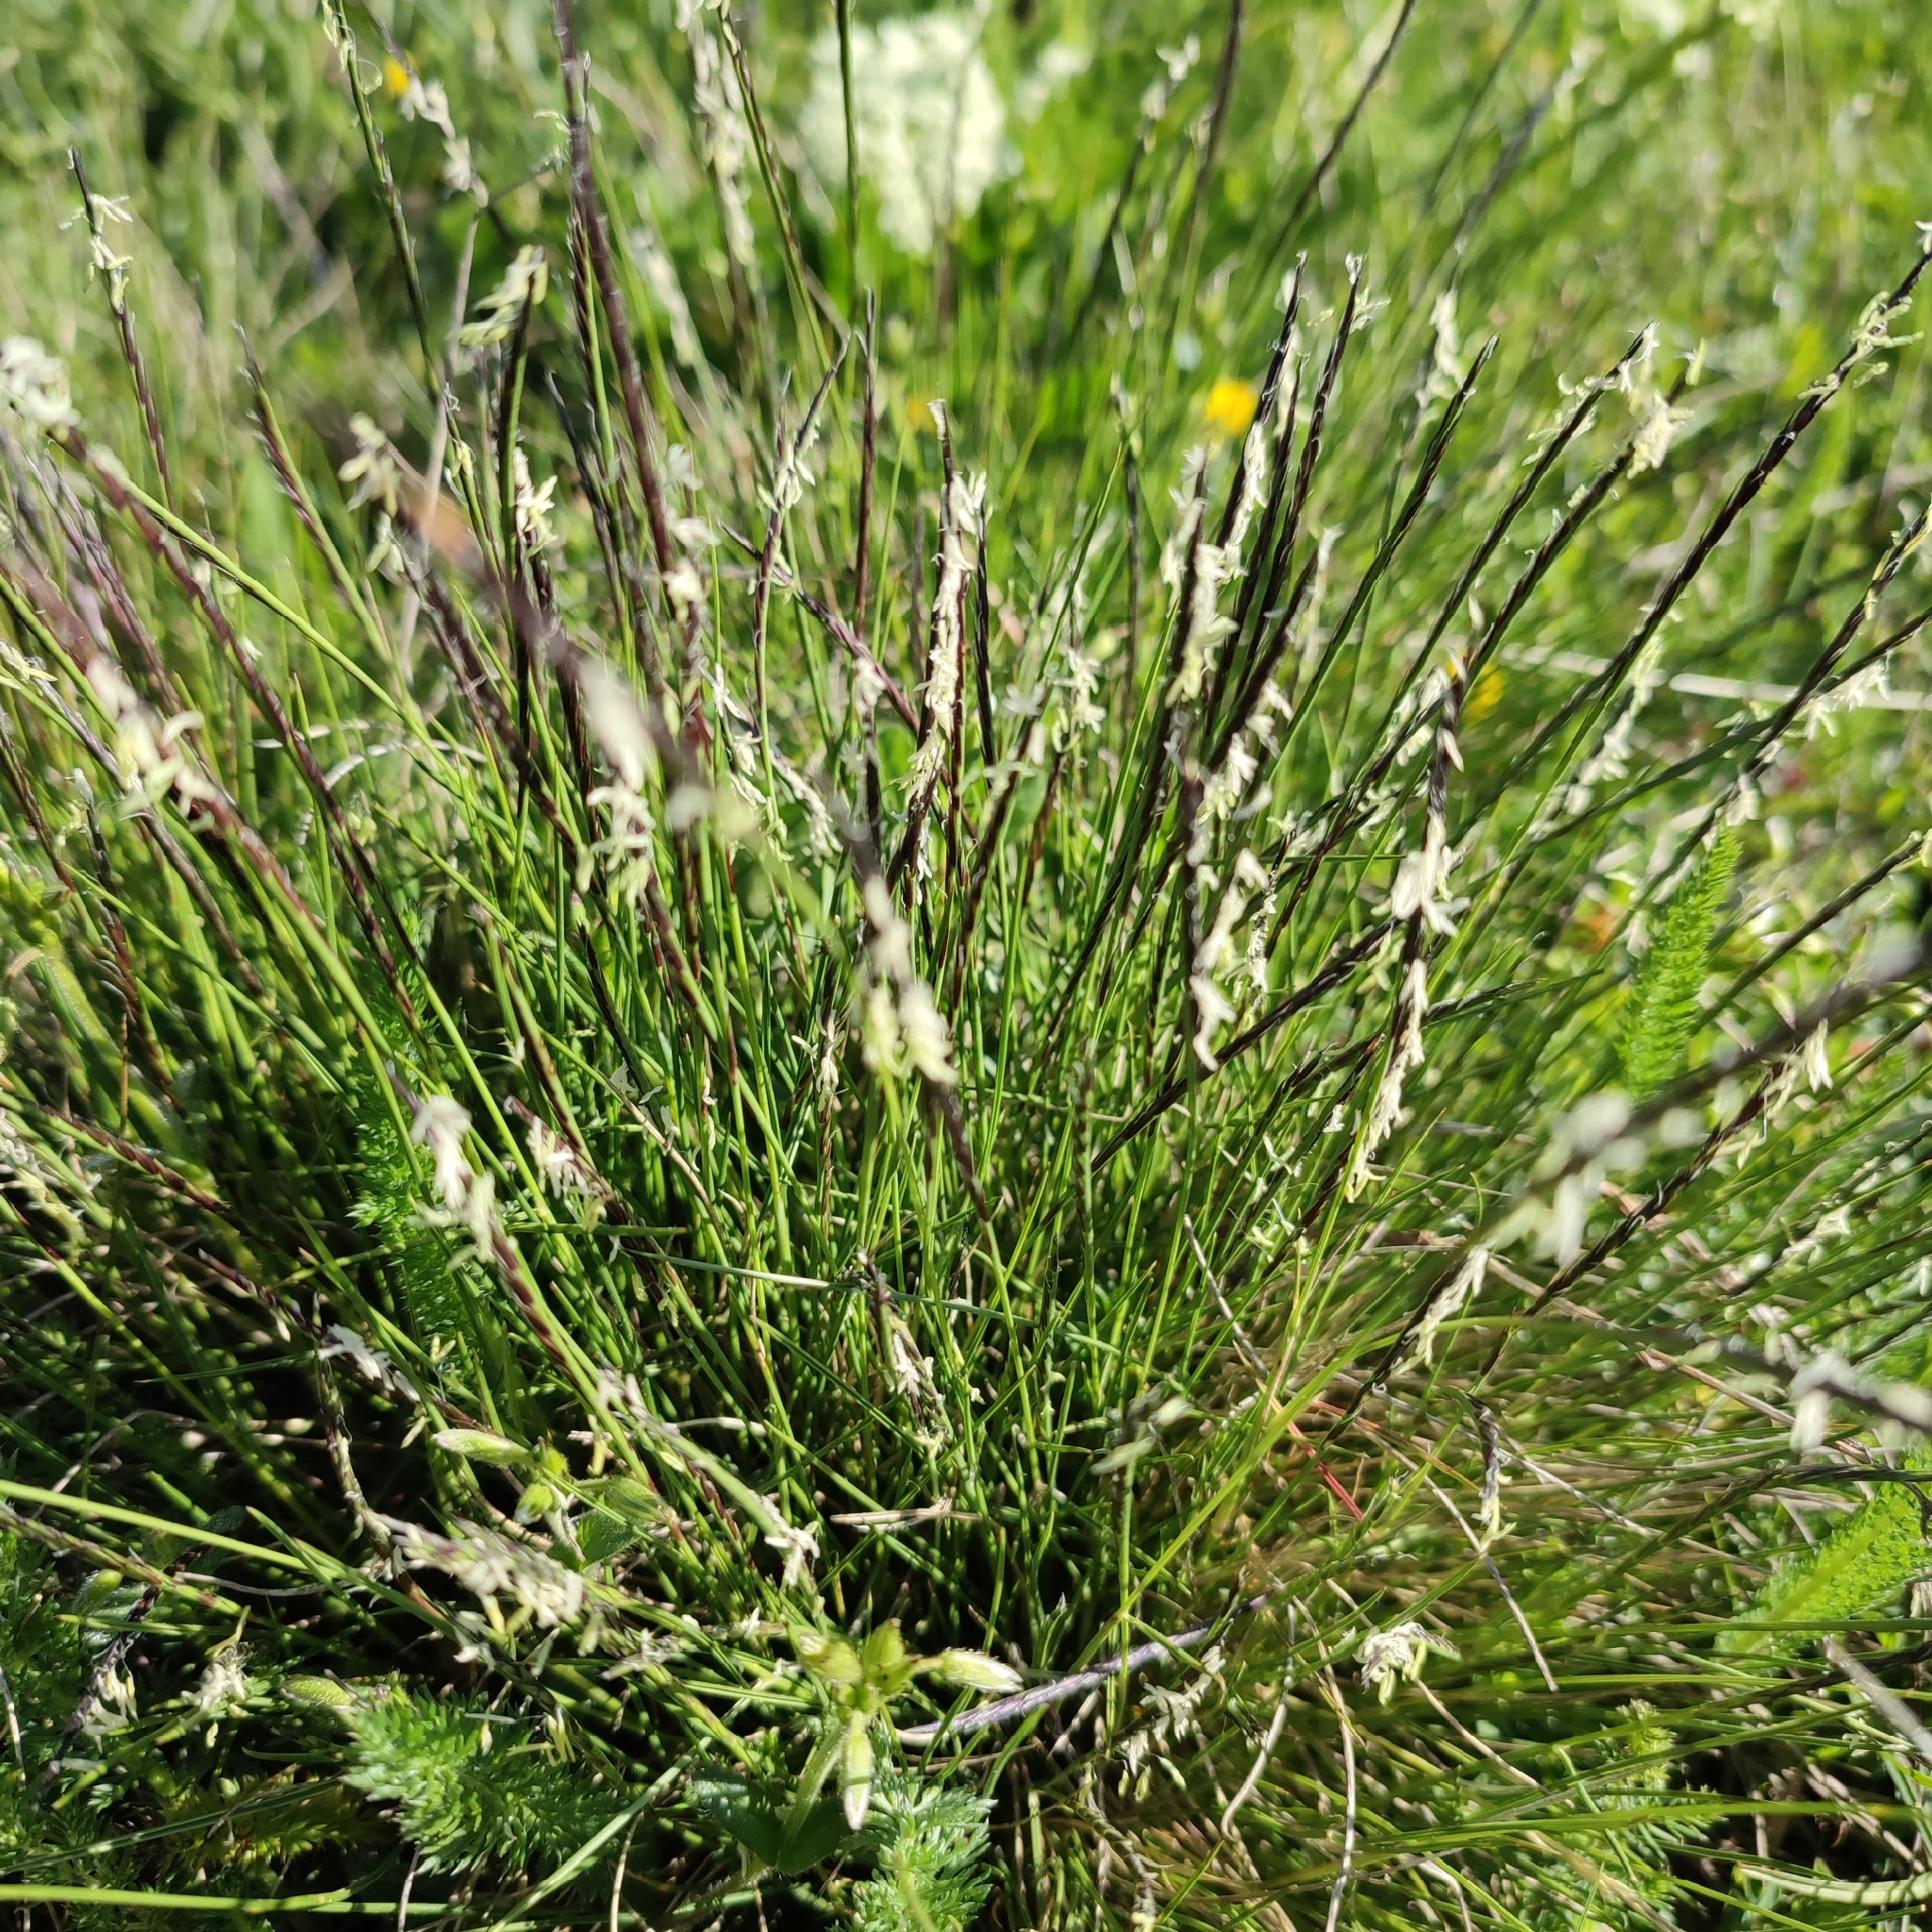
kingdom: Plantae
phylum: Tracheophyta
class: Liliopsida
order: Poales
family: Poaceae
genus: Nardus
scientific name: Nardus stricta
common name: Mat-grass
